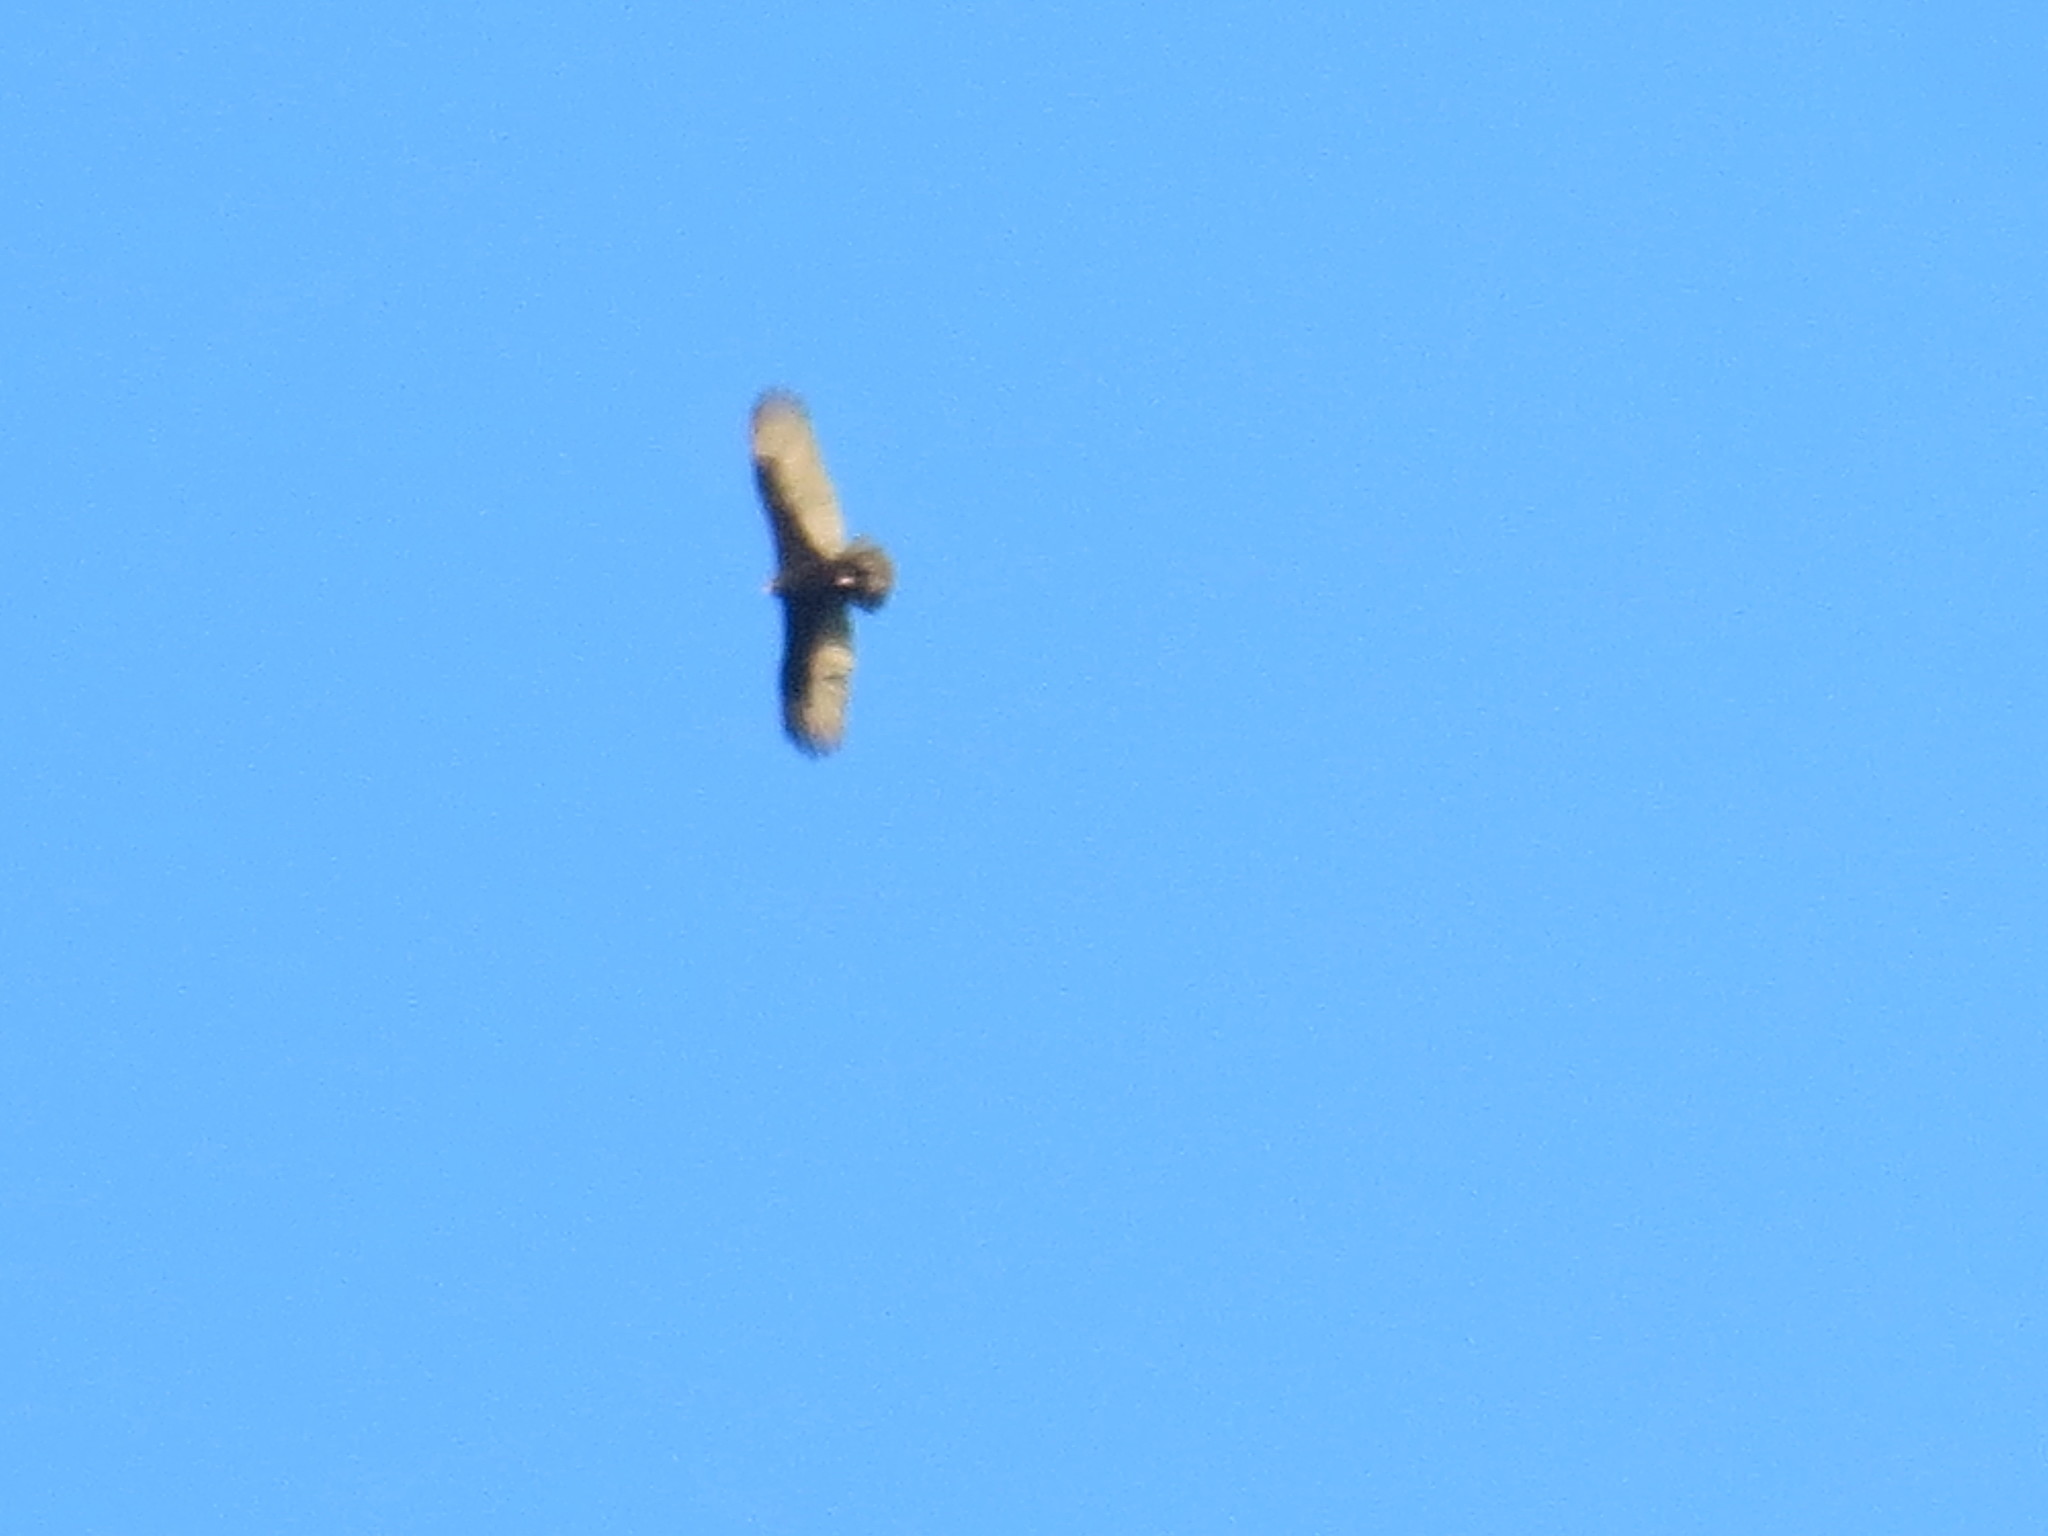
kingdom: Animalia
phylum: Chordata
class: Aves
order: Accipitriformes
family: Cathartidae
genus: Cathartes
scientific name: Cathartes aura
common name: Turkey vulture
